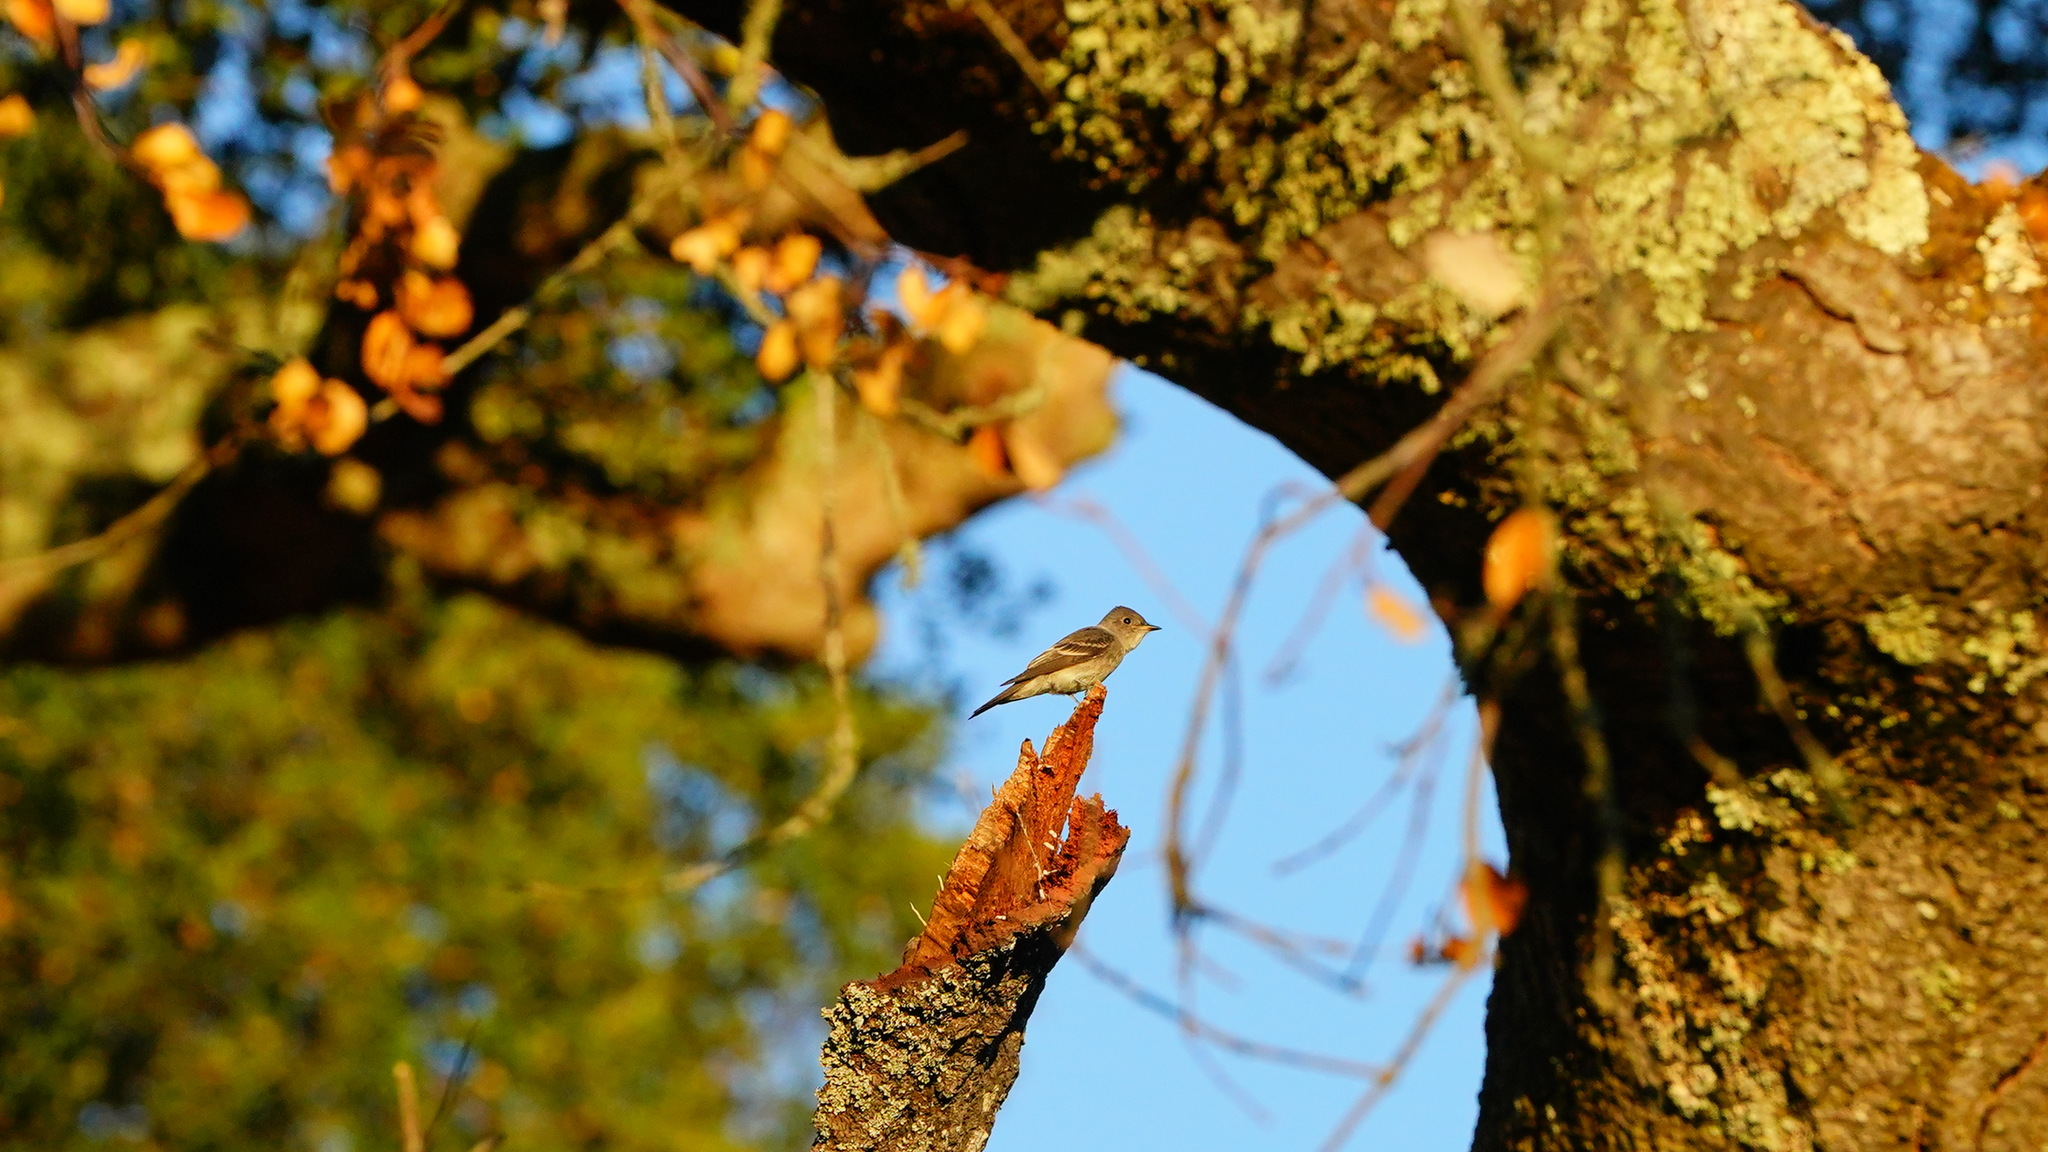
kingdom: Animalia
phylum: Chordata
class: Aves
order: Passeriformes
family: Tyrannidae
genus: Contopus
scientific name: Contopus sordidulus
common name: Western wood-pewee
